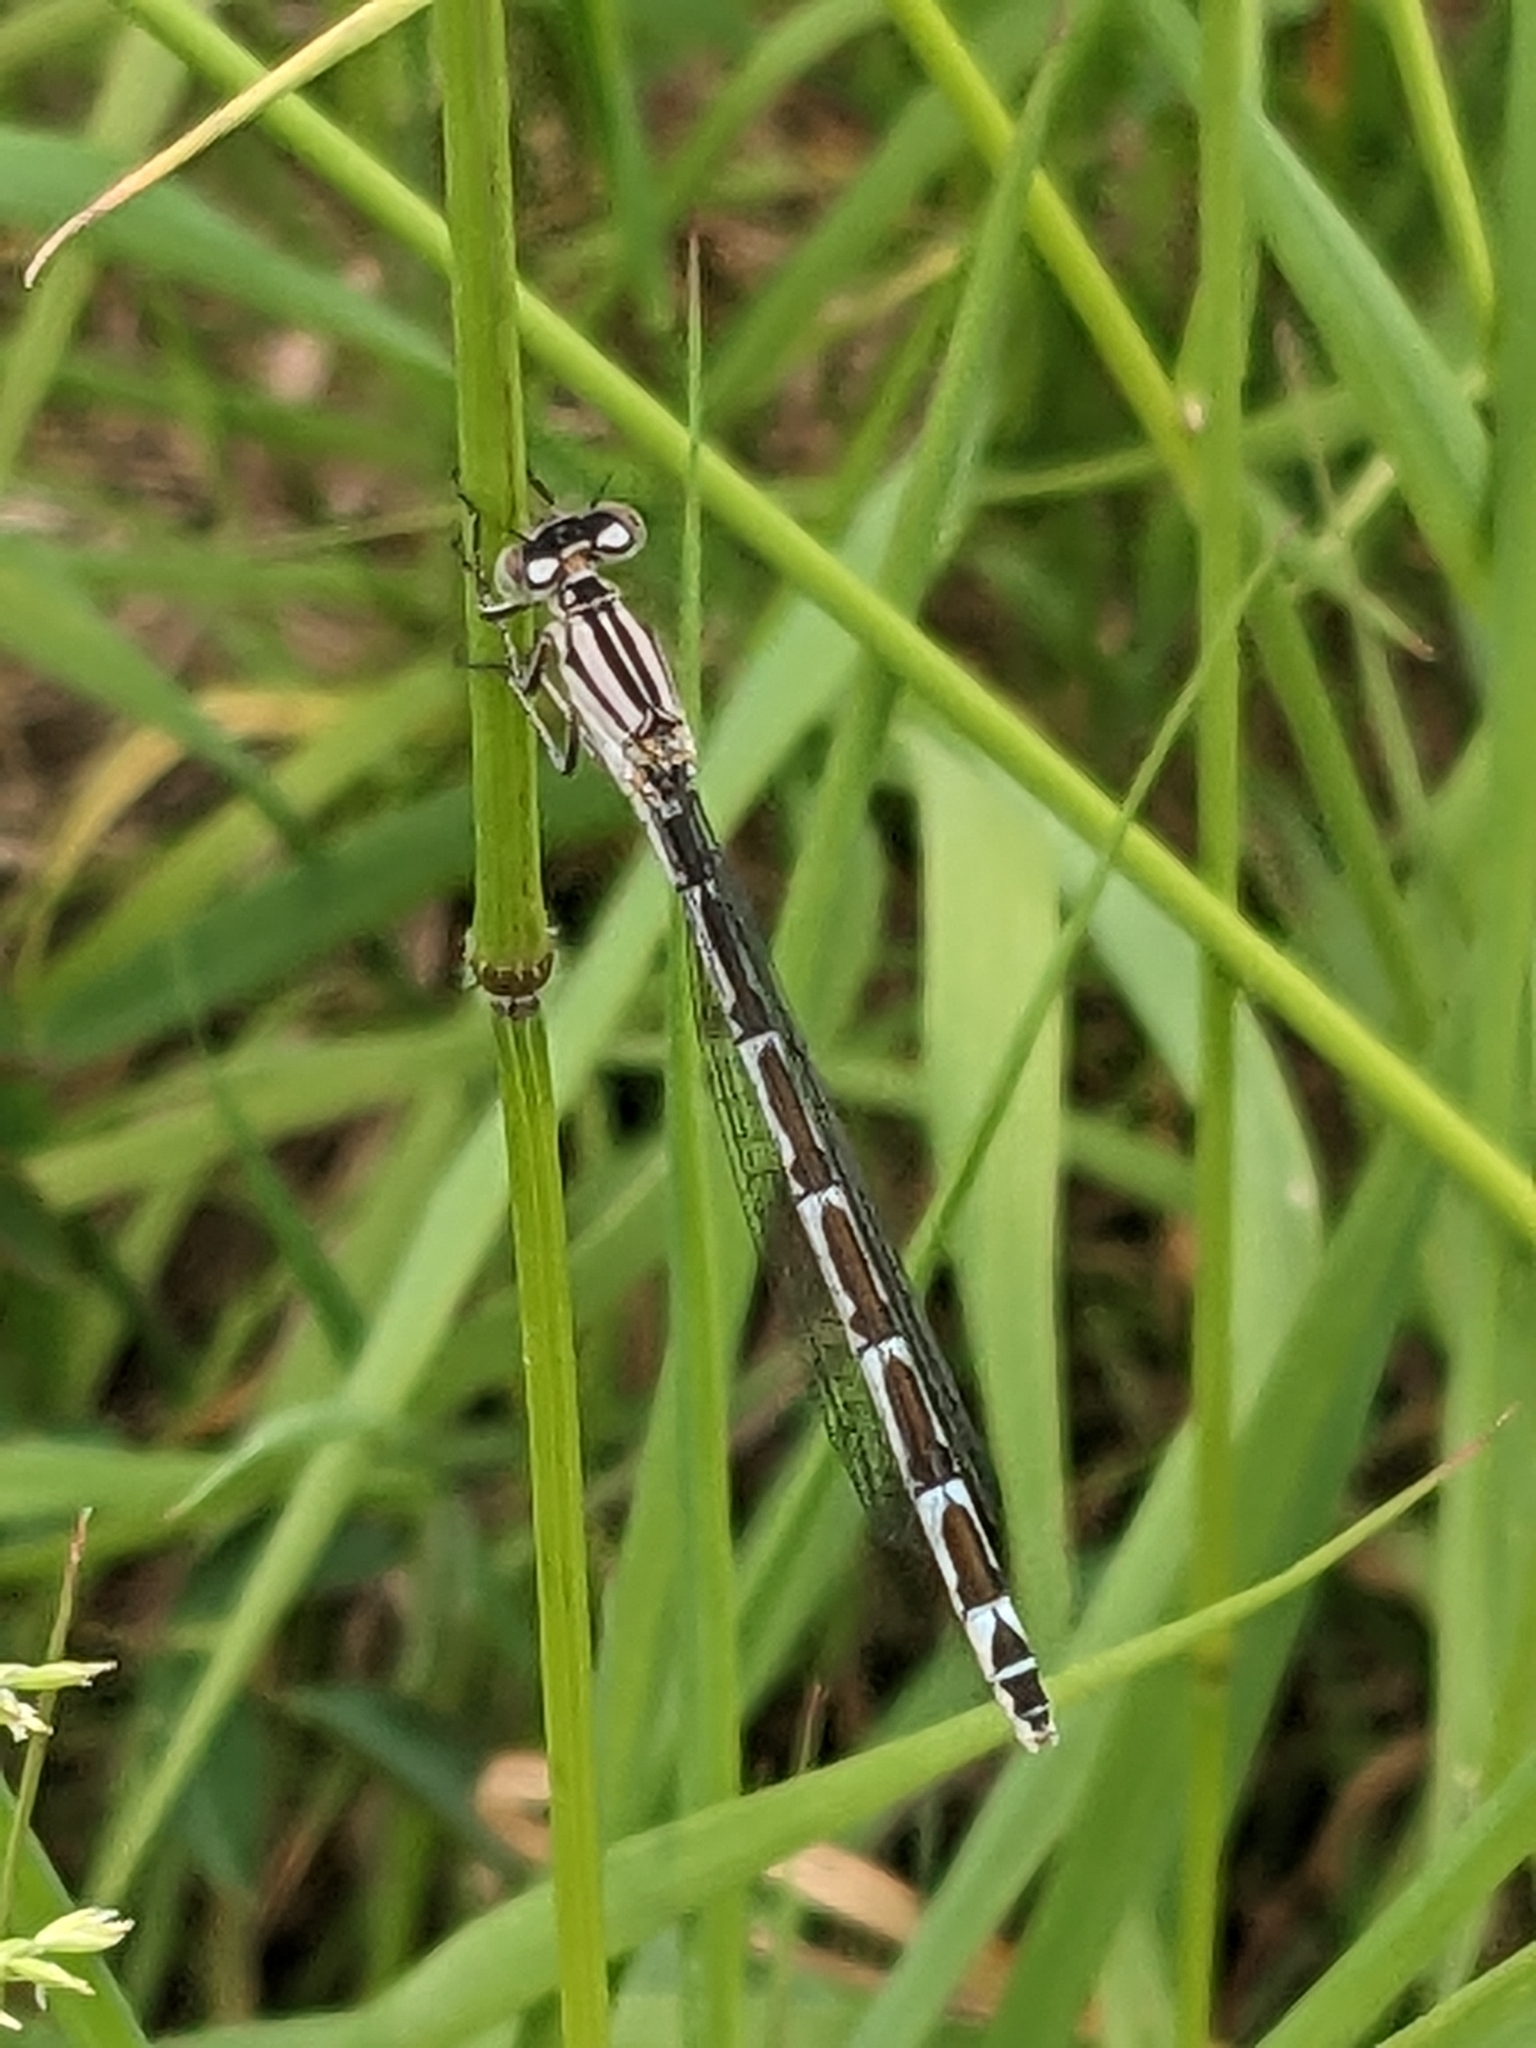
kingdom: Animalia
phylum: Arthropoda
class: Insecta
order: Odonata
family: Coenagrionidae
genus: Enallagma
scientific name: Enallagma cyathigerum
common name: Common blue damselfly
